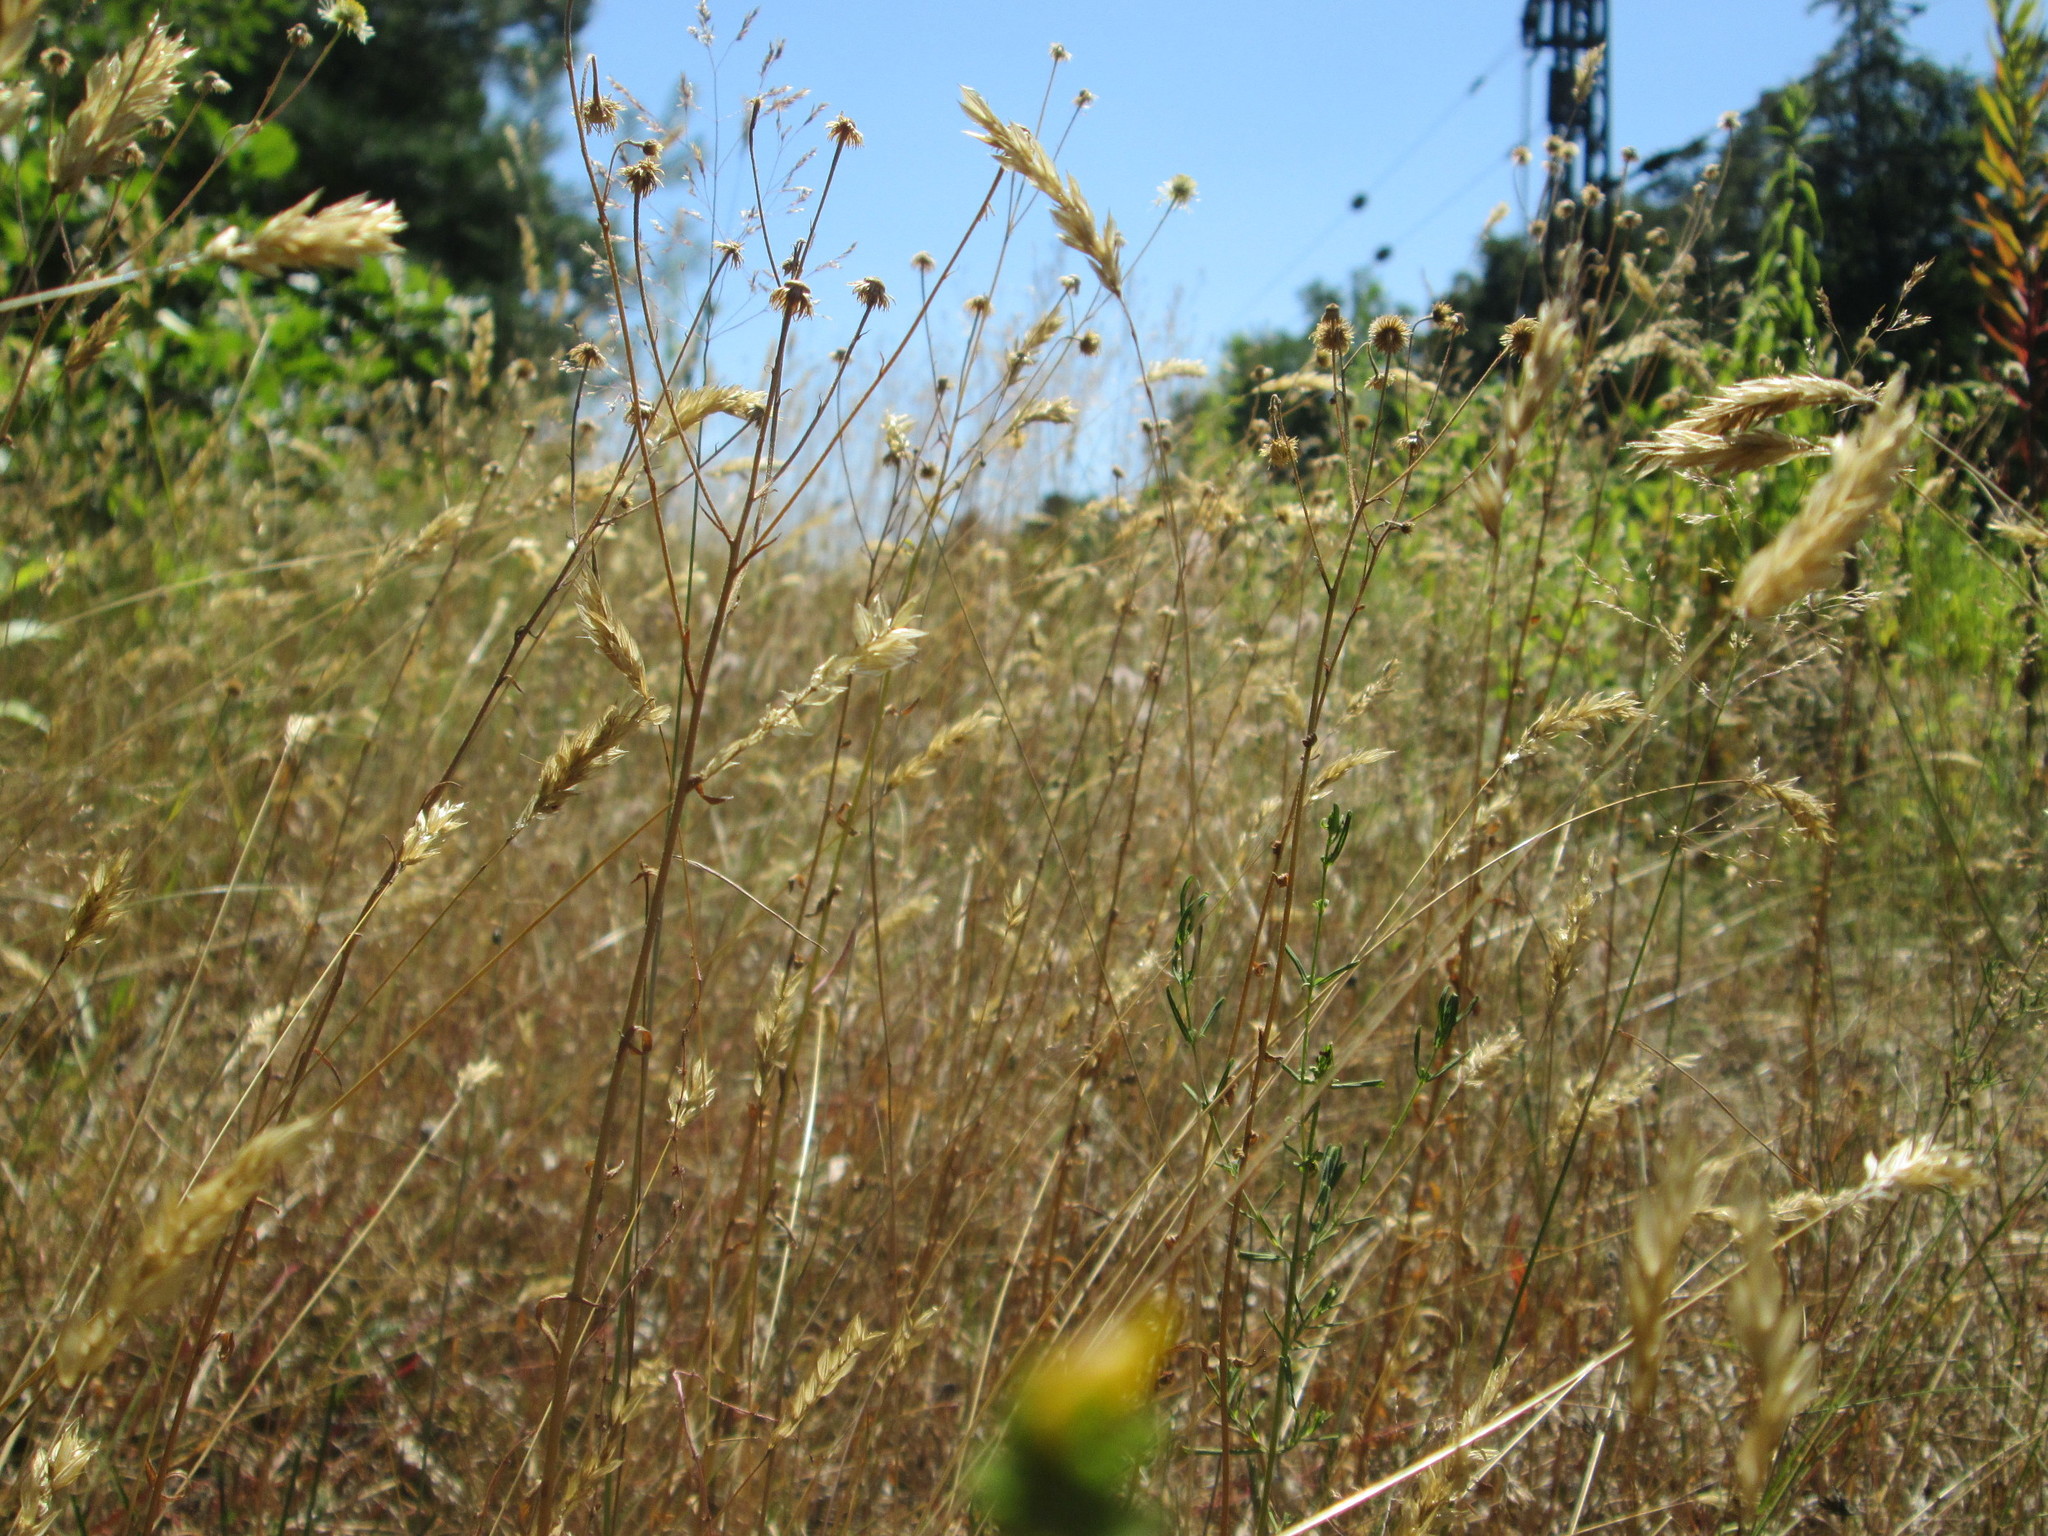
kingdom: Plantae
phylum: Tracheophyta
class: Liliopsida
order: Poales
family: Poaceae
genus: Anthoxanthum
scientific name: Anthoxanthum odoratum
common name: Sweet vernalgrass
